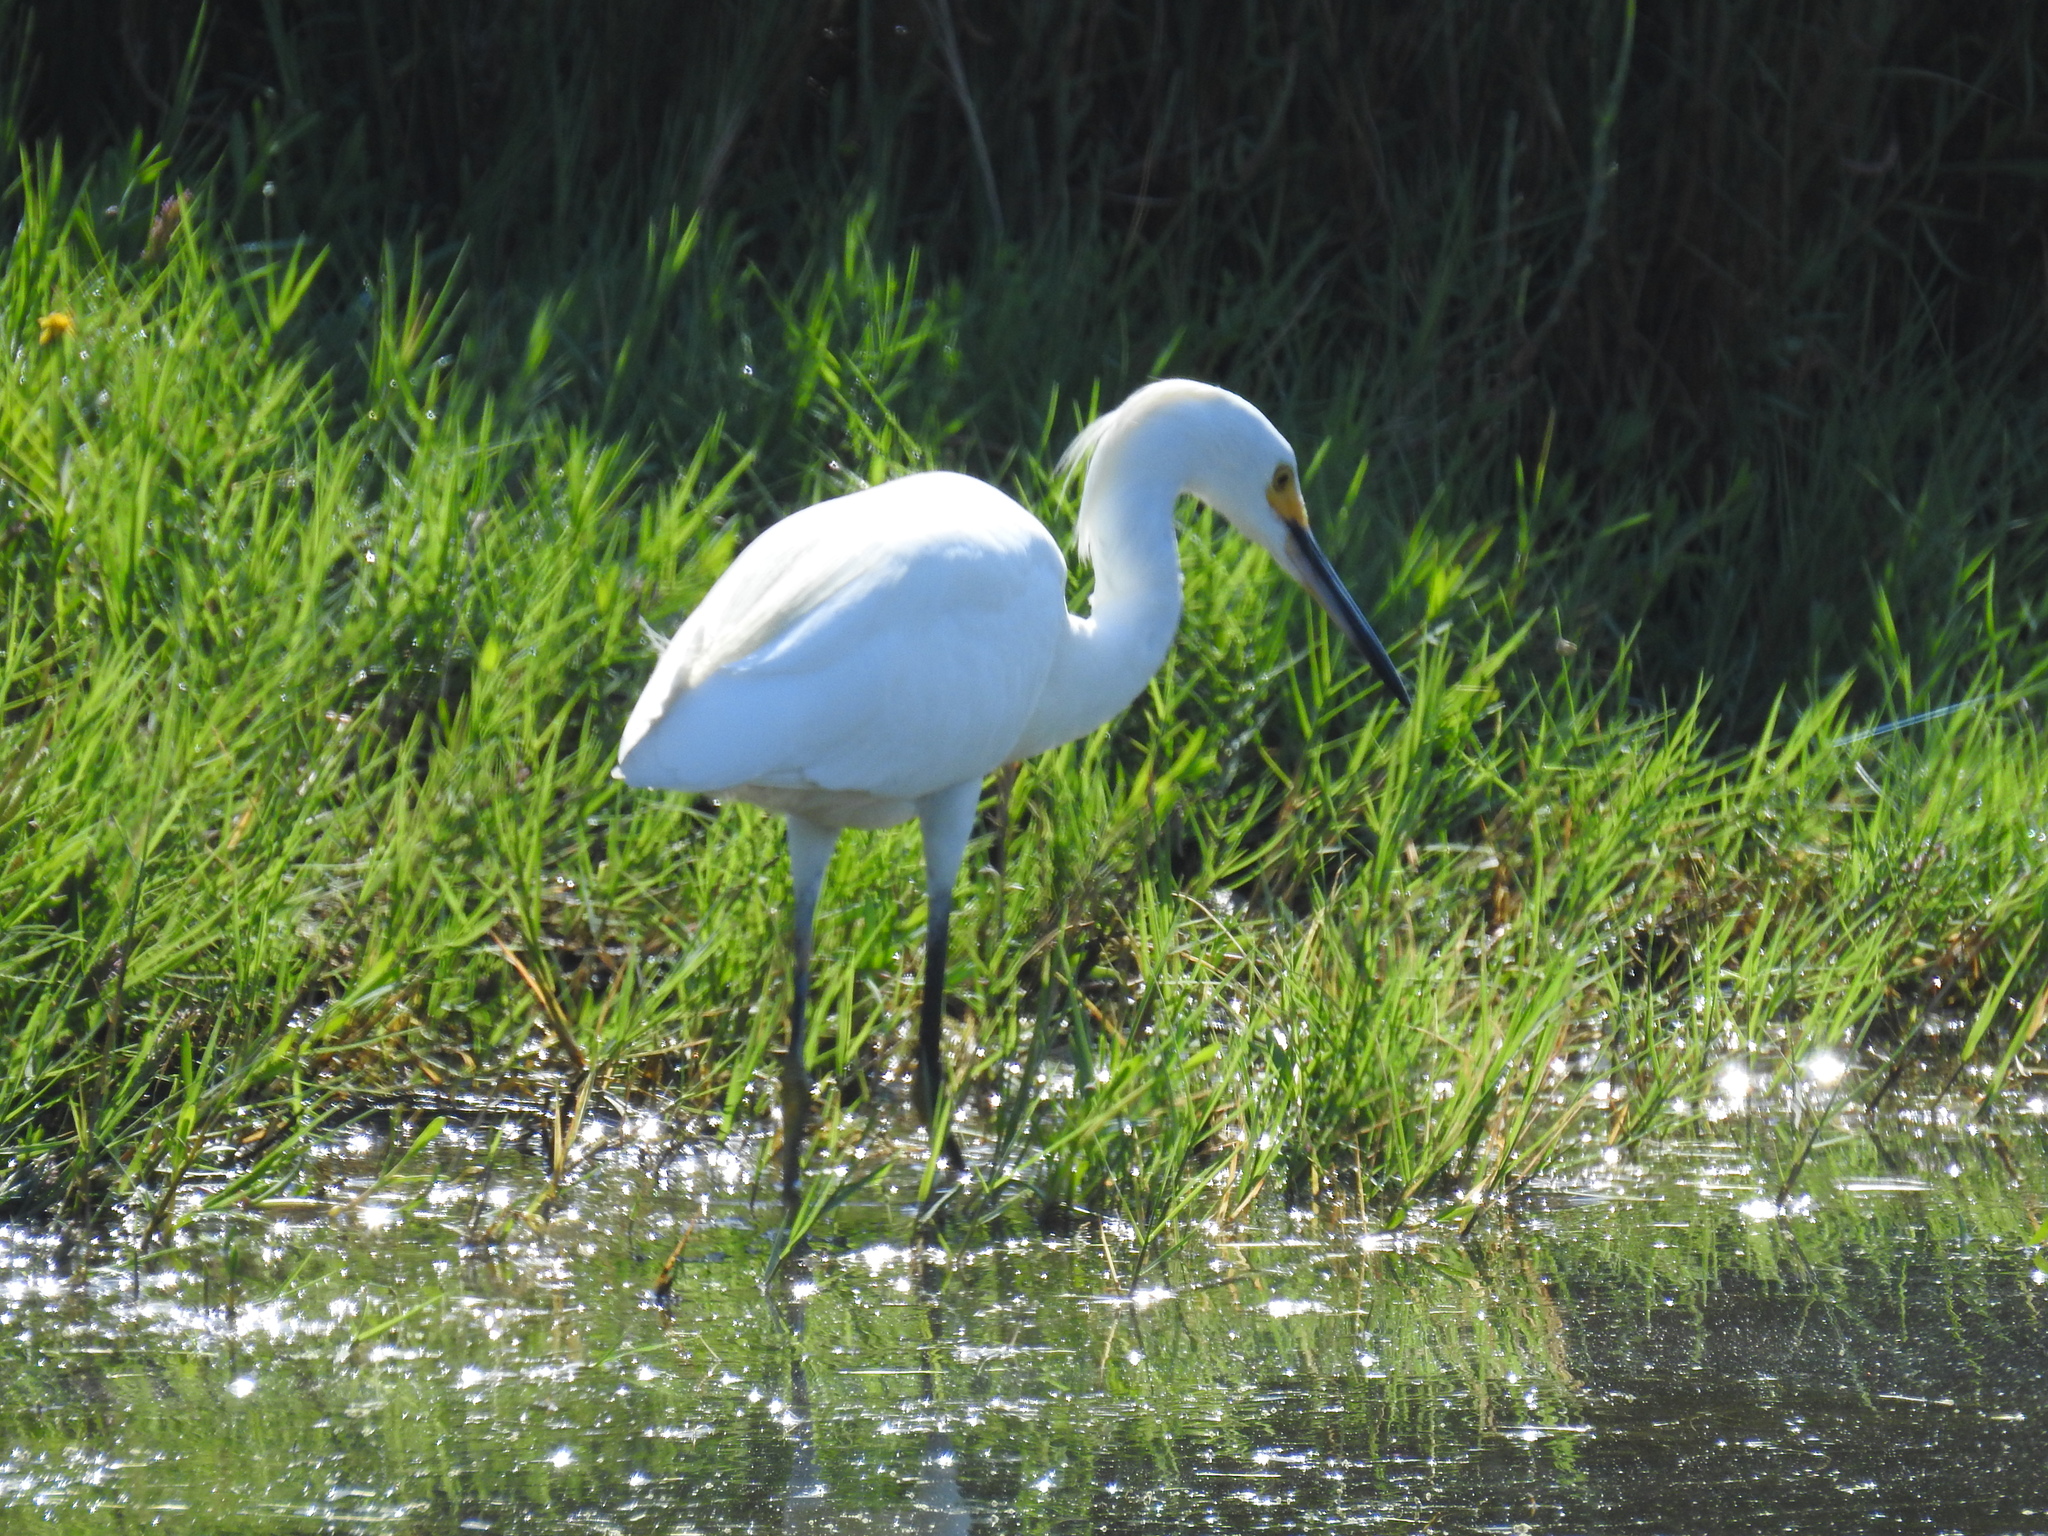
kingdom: Animalia
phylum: Chordata
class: Aves
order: Pelecaniformes
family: Ardeidae
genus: Egretta
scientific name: Egretta thula
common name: Snowy egret
